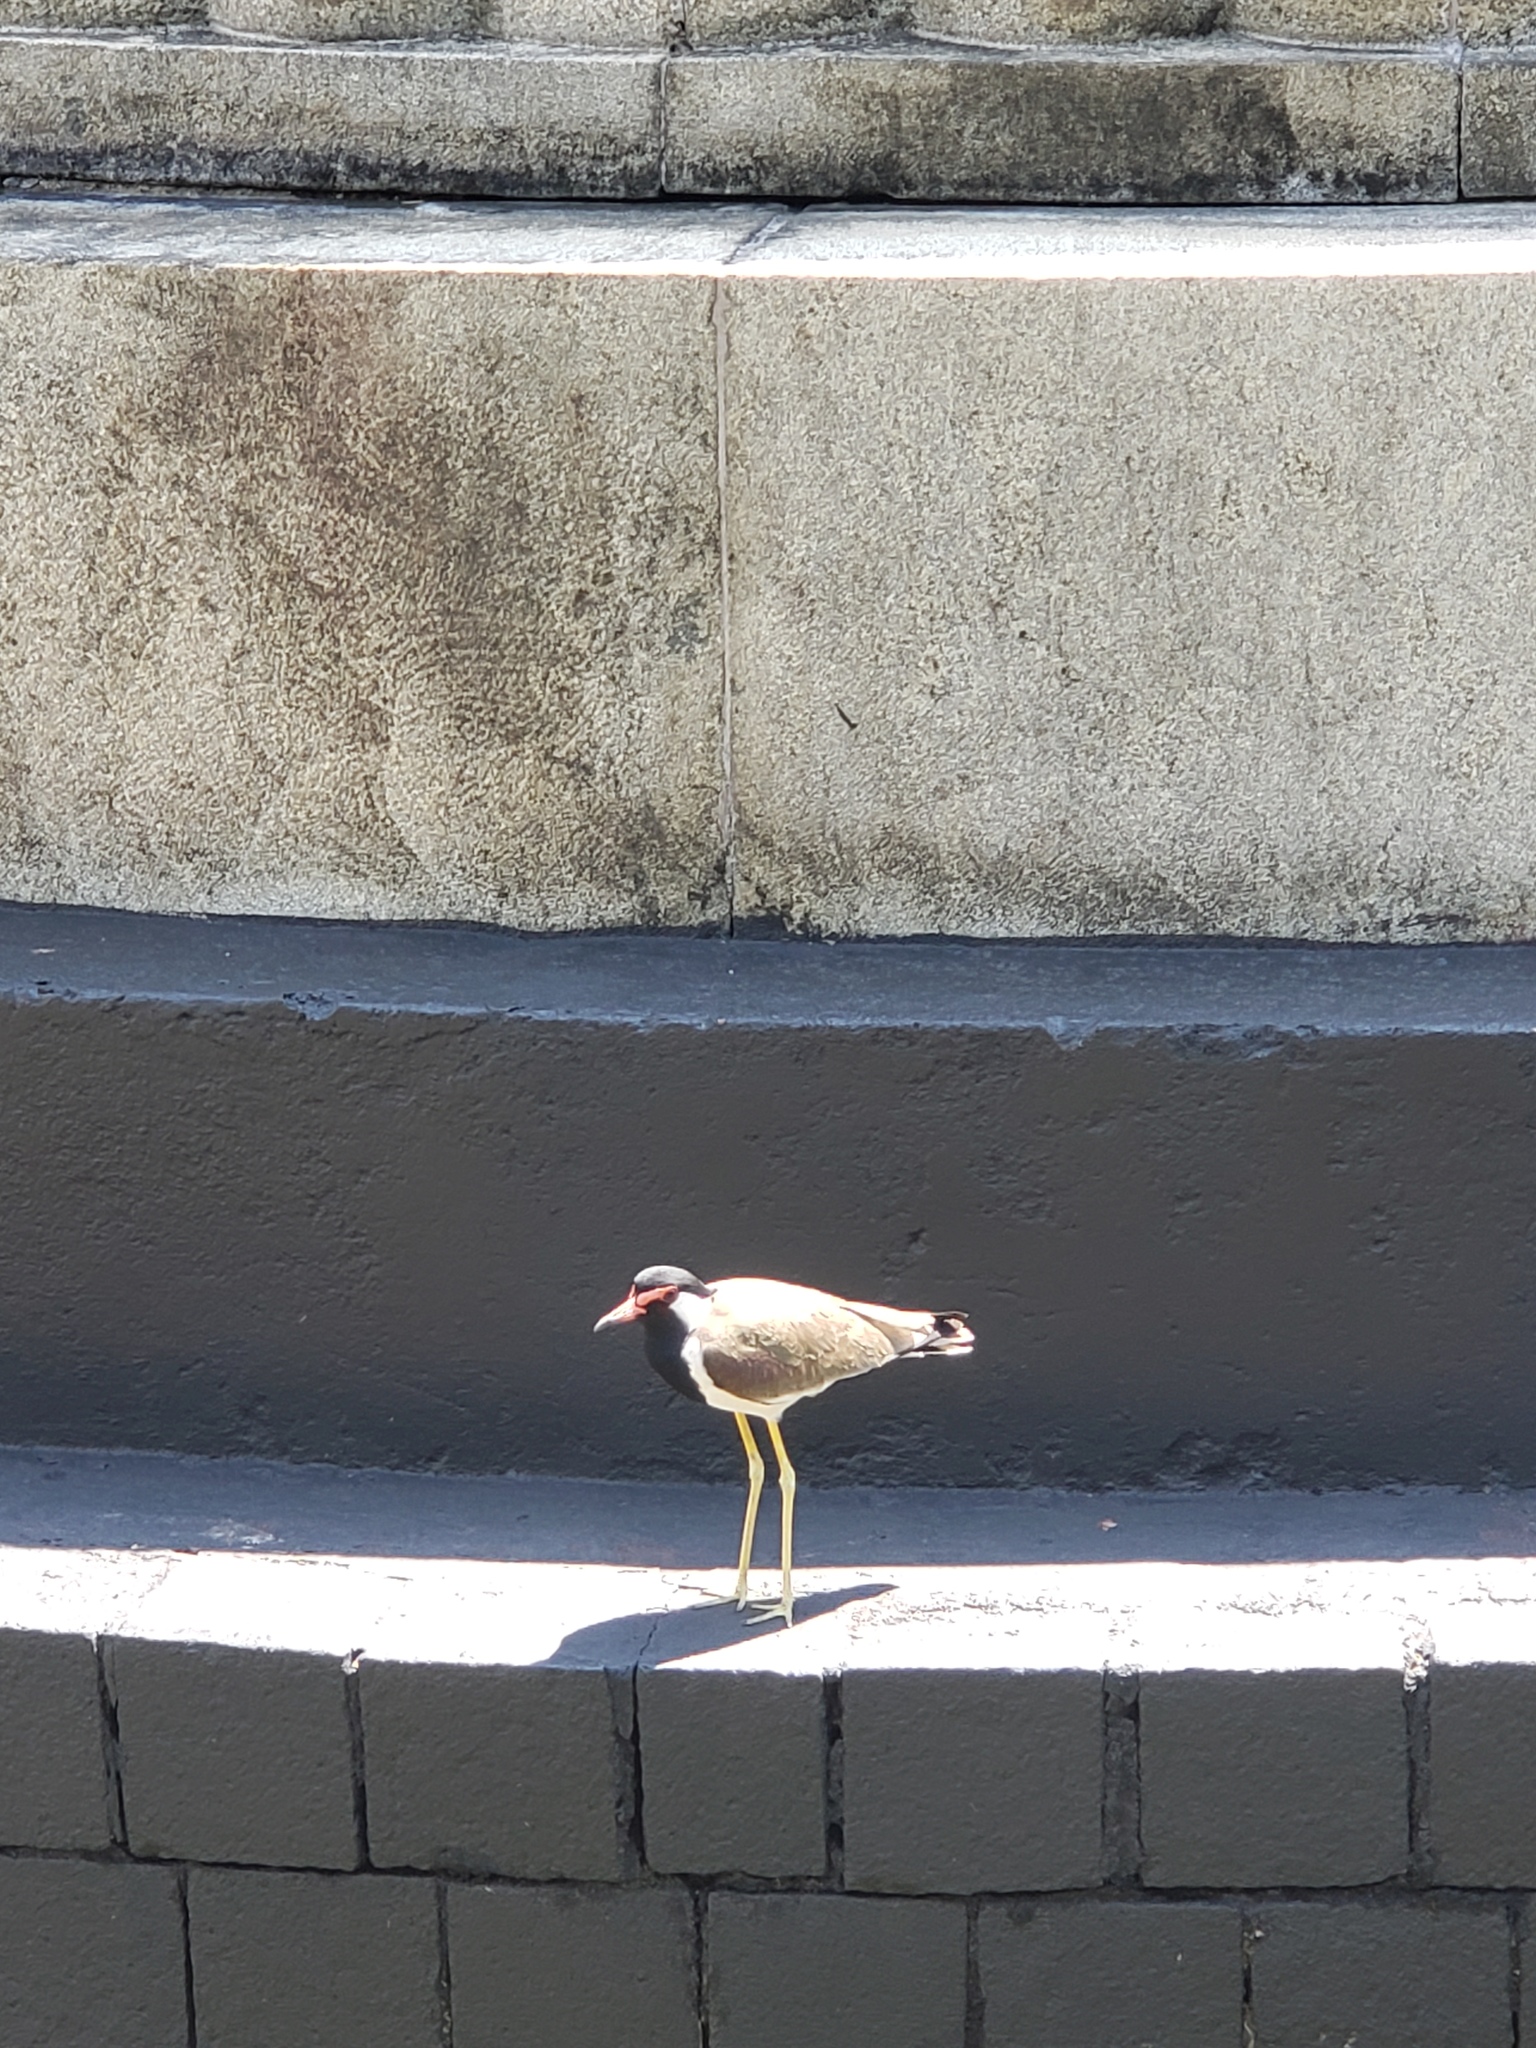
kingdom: Animalia
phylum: Chordata
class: Aves
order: Charadriiformes
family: Charadriidae
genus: Vanellus
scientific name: Vanellus indicus
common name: Red-wattled lapwing
